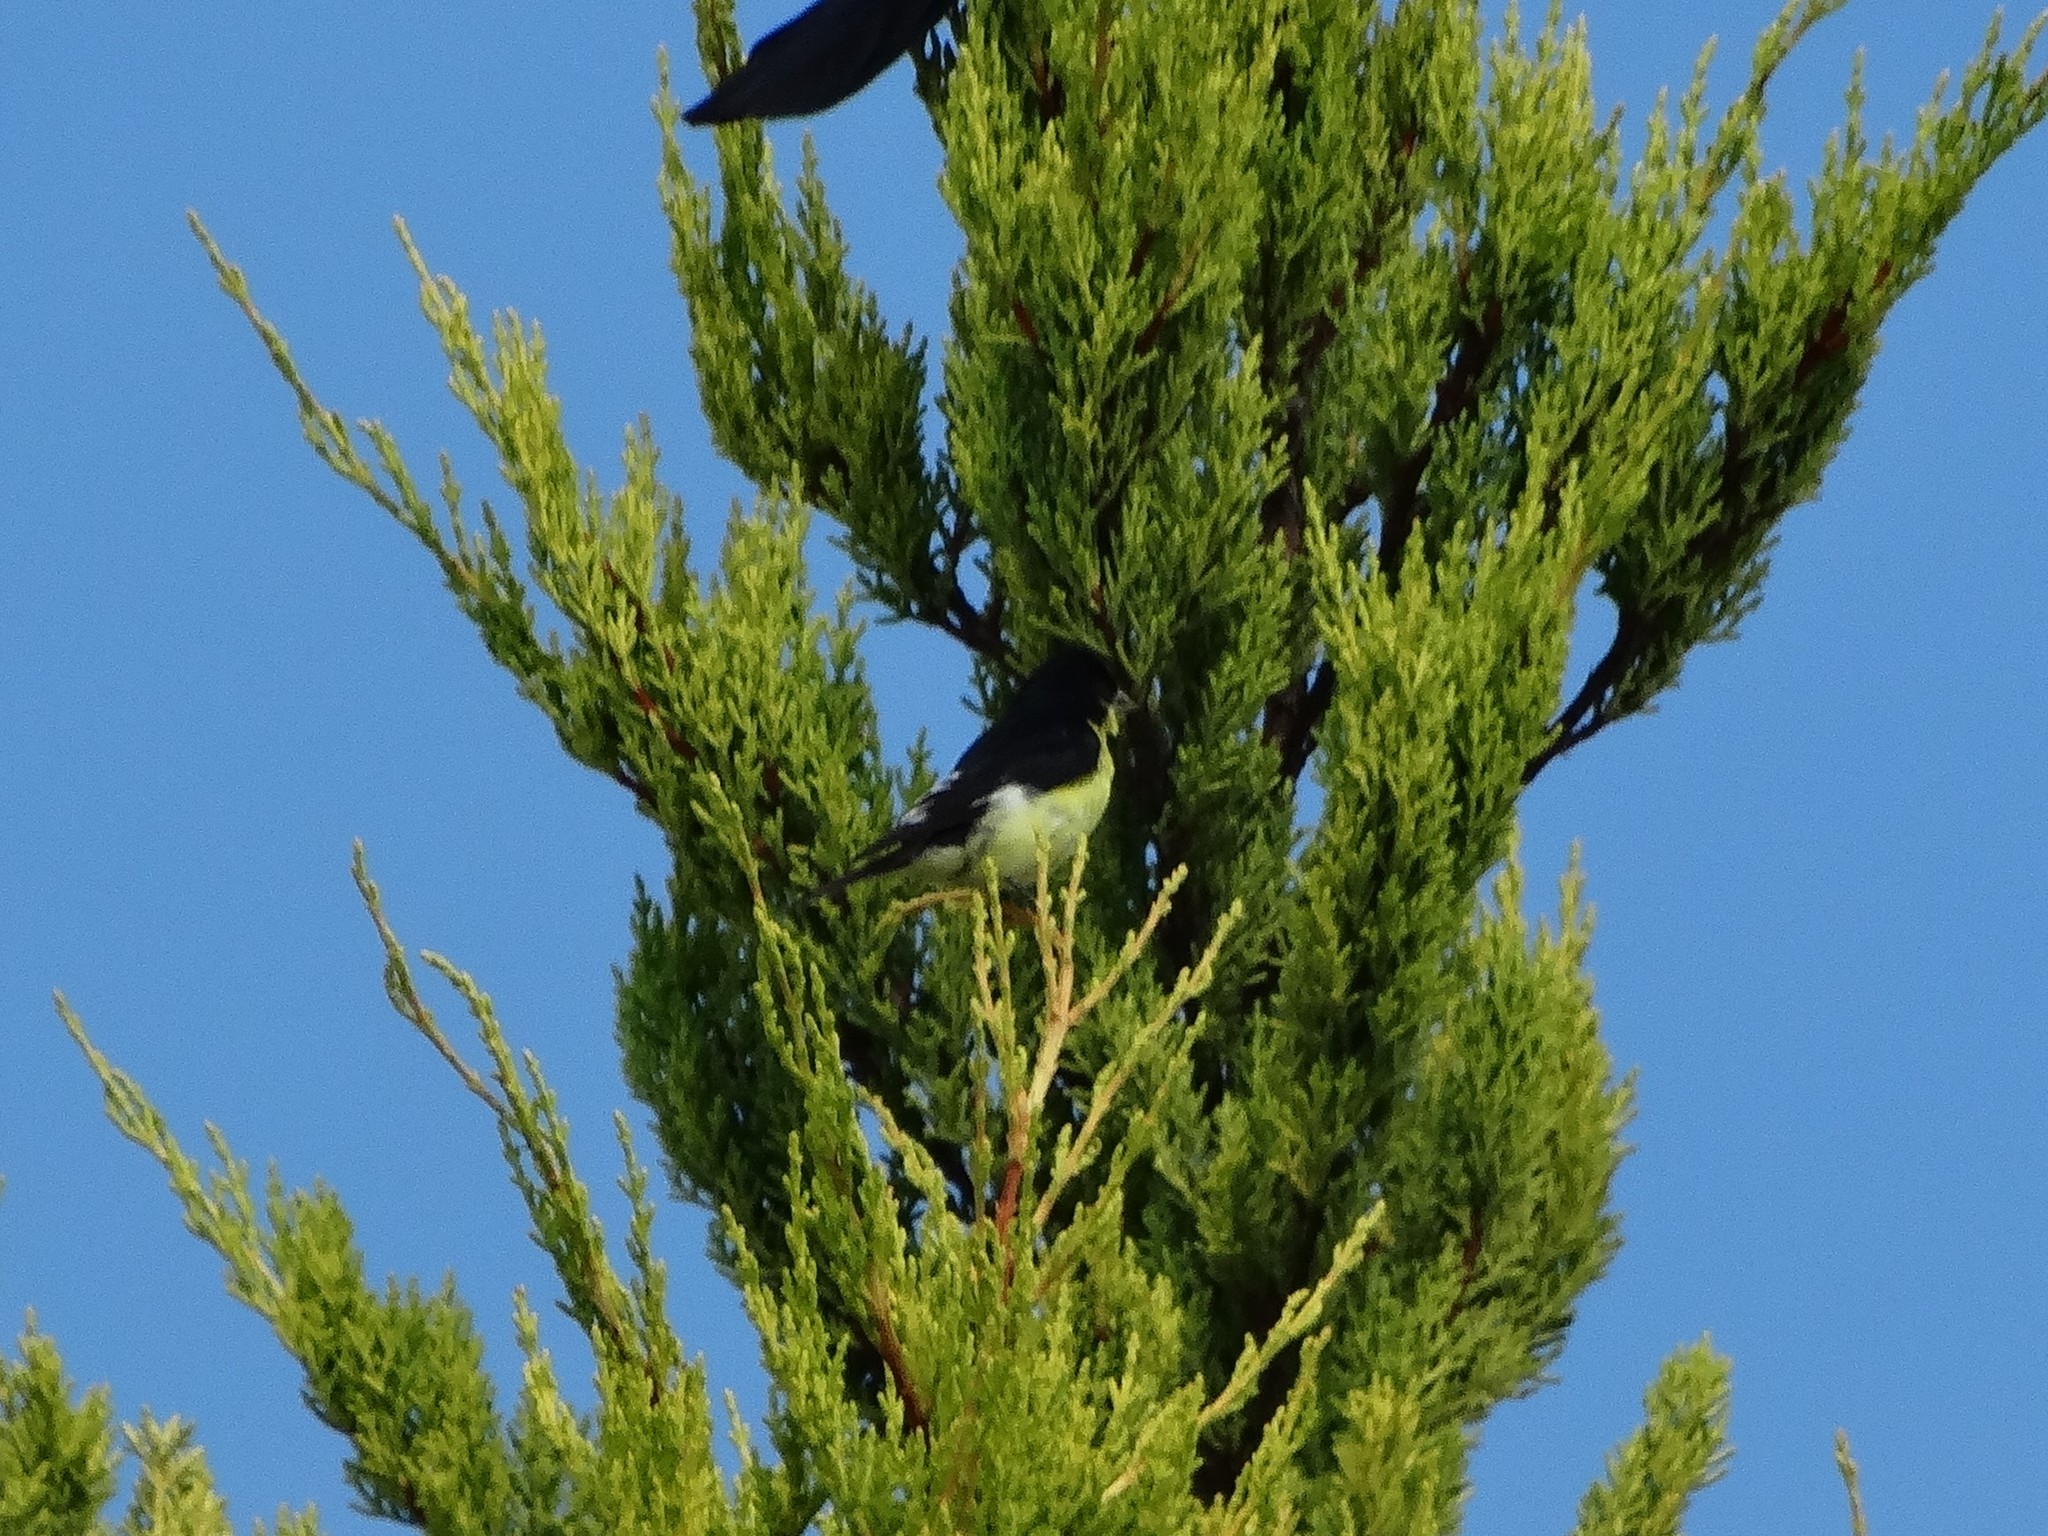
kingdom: Animalia
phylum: Chordata
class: Aves
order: Passeriformes
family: Fringillidae
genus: Spinus
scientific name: Spinus psaltria
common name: Lesser goldfinch
